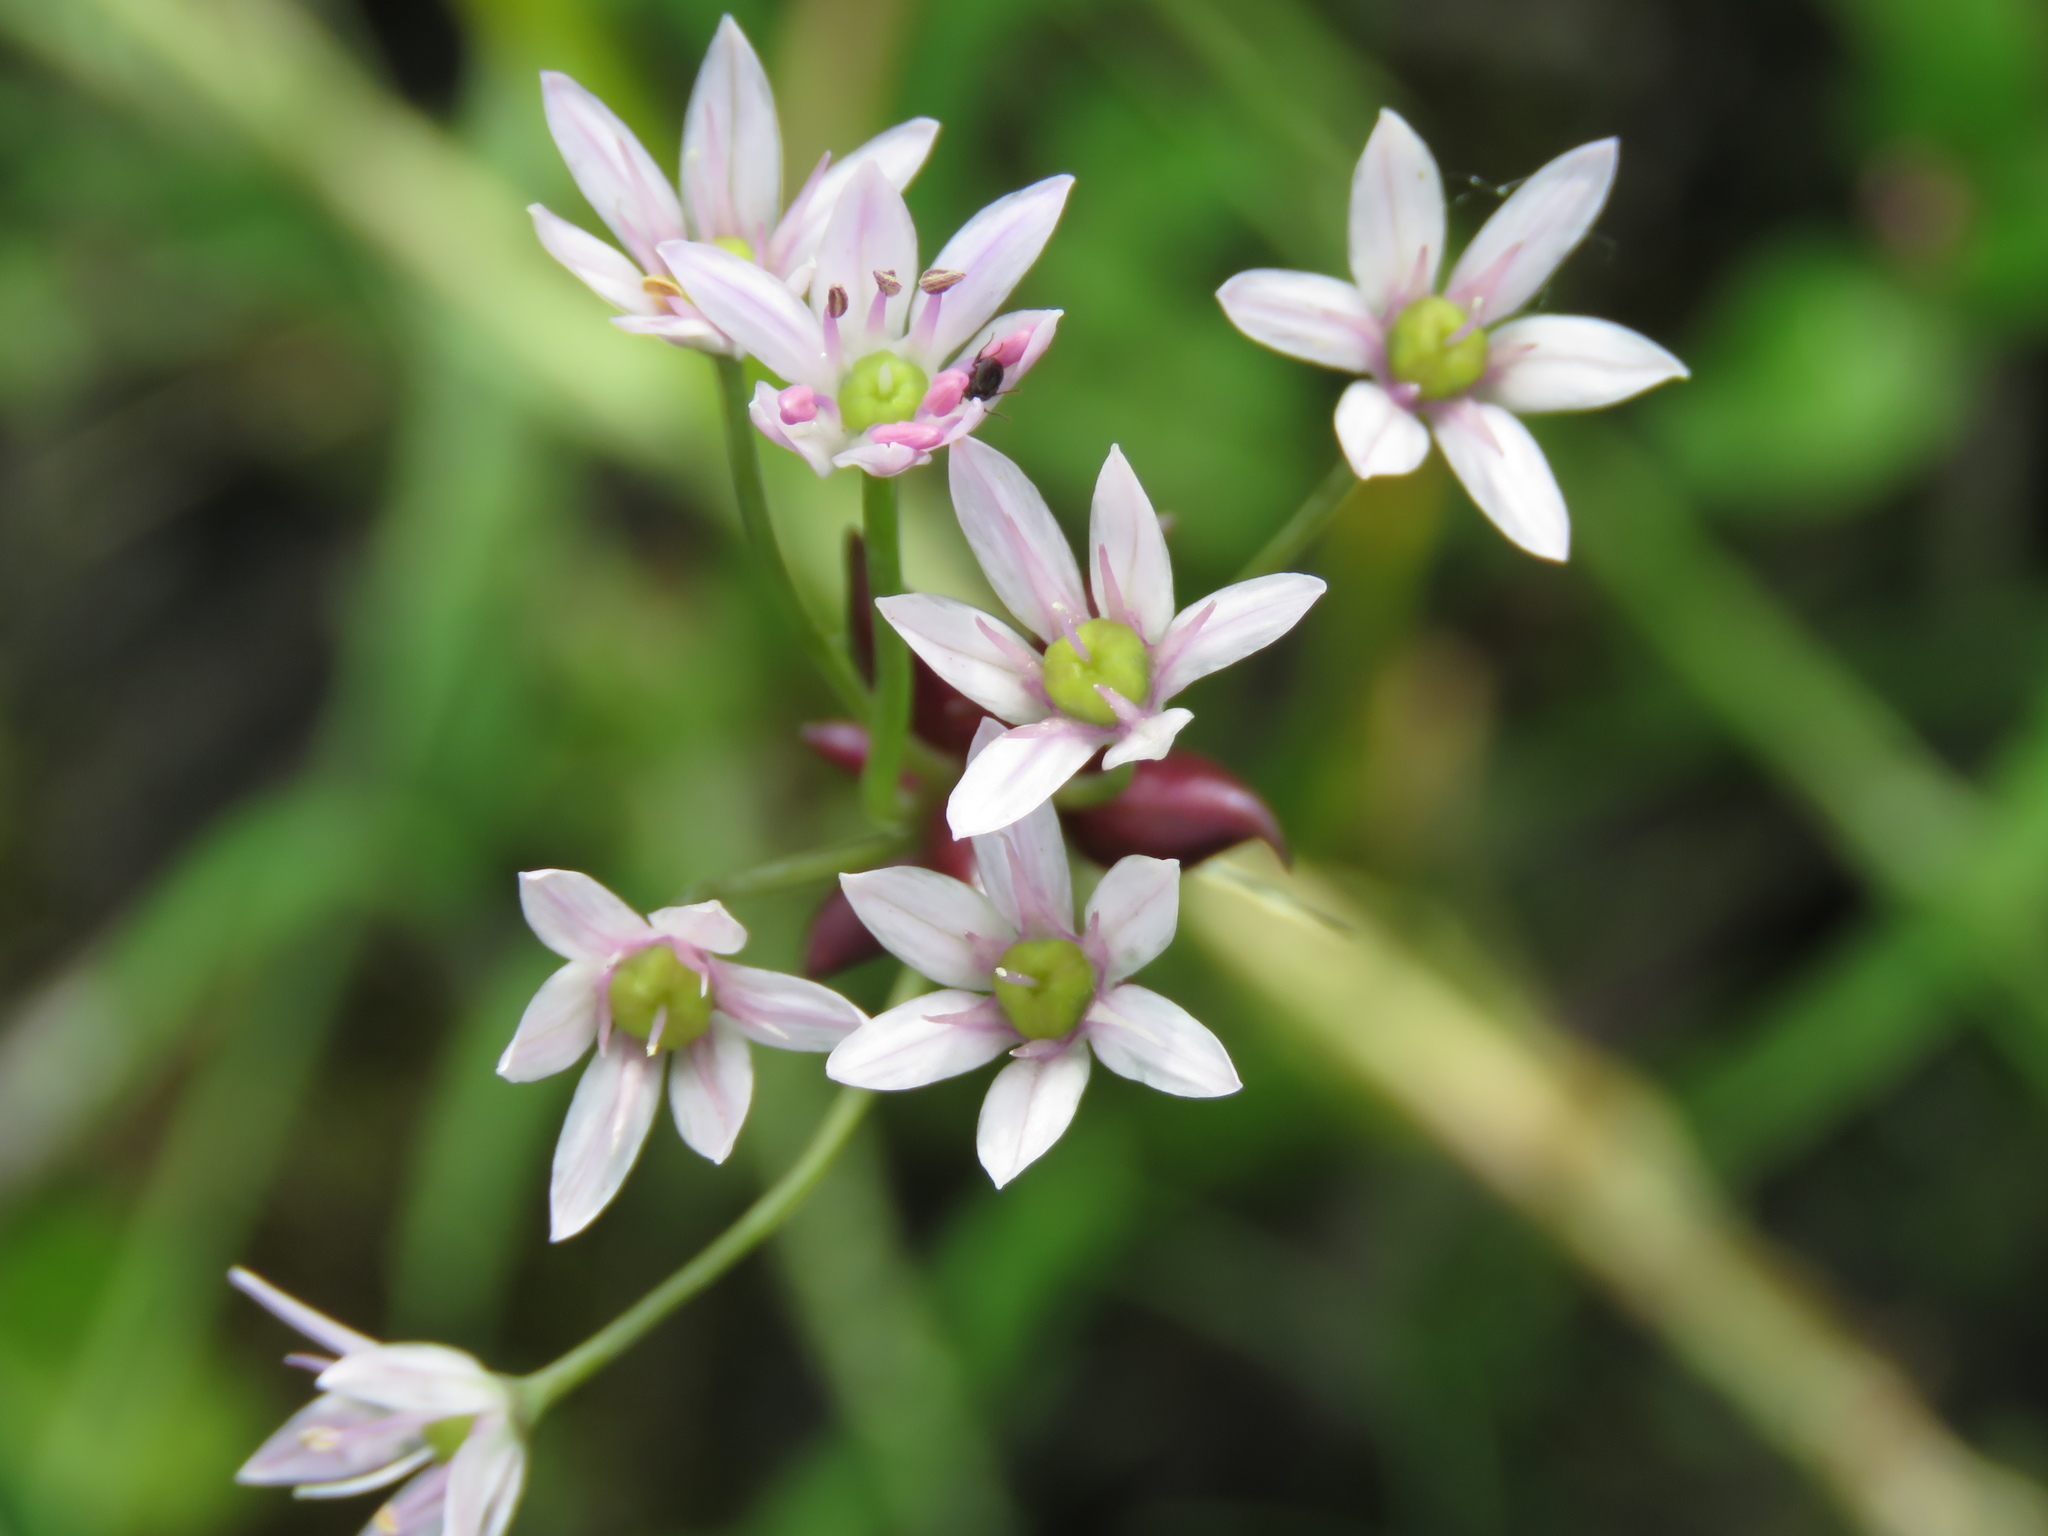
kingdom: Plantae
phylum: Tracheophyta
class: Liliopsida
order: Asparagales
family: Amaryllidaceae
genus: Allium
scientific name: Allium canadense
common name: Meadow garlic
